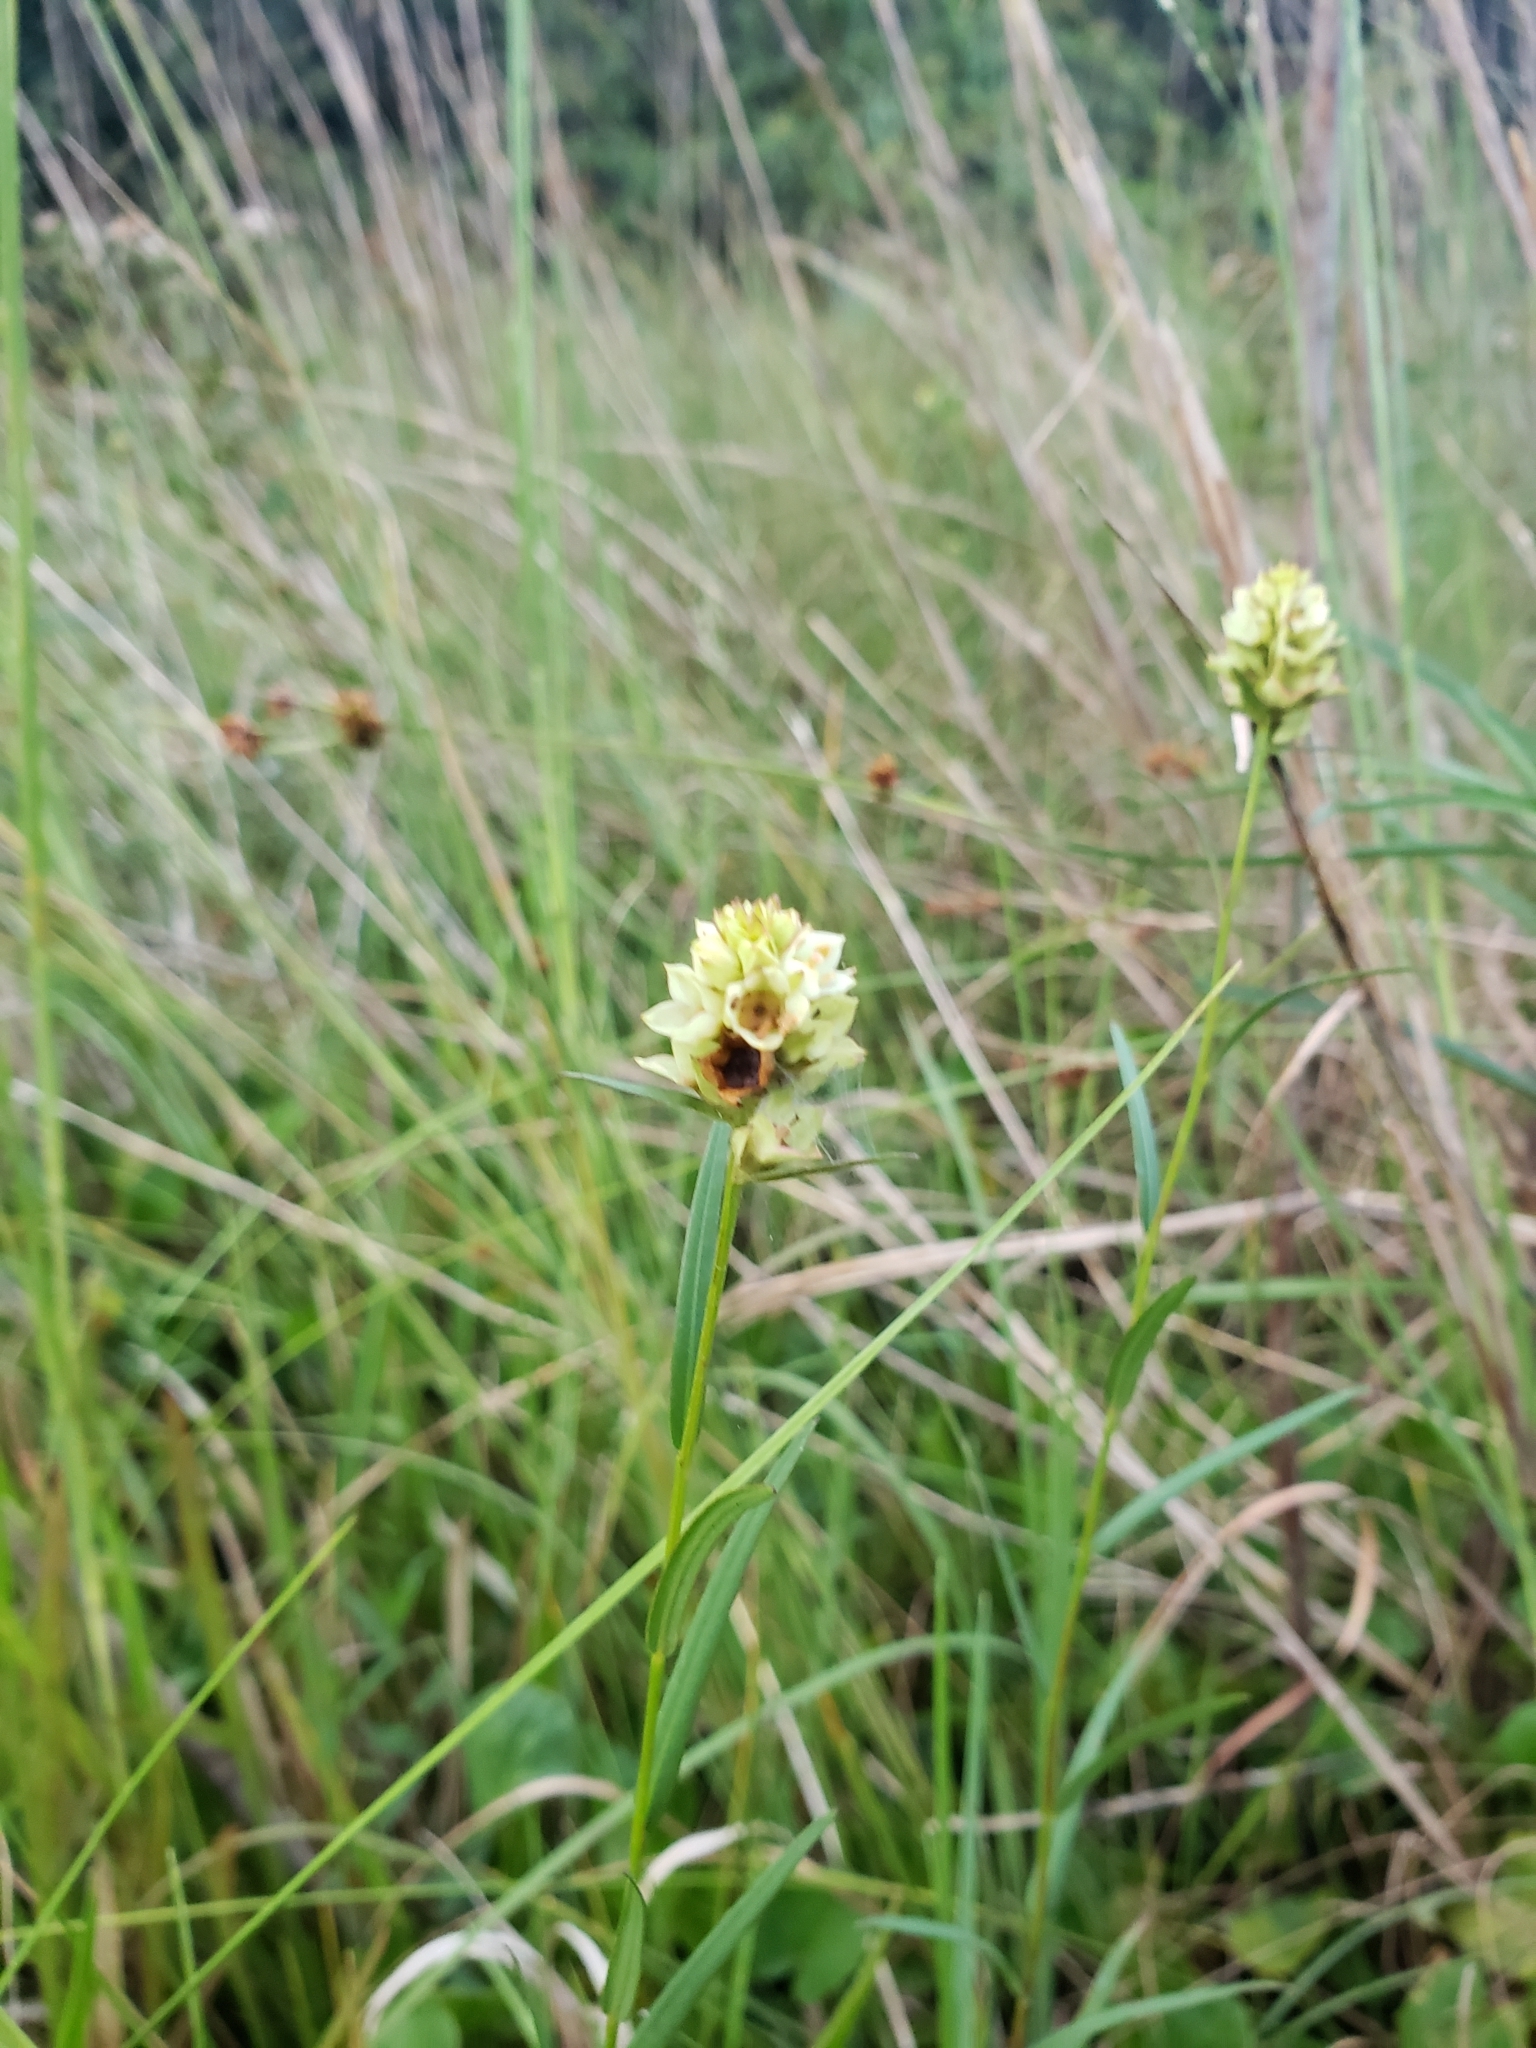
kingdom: Plantae
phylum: Tracheophyta
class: Magnoliopsida
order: Myrtales
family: Onagraceae
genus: Ludwigia
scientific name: Ludwigia suffruticosa
